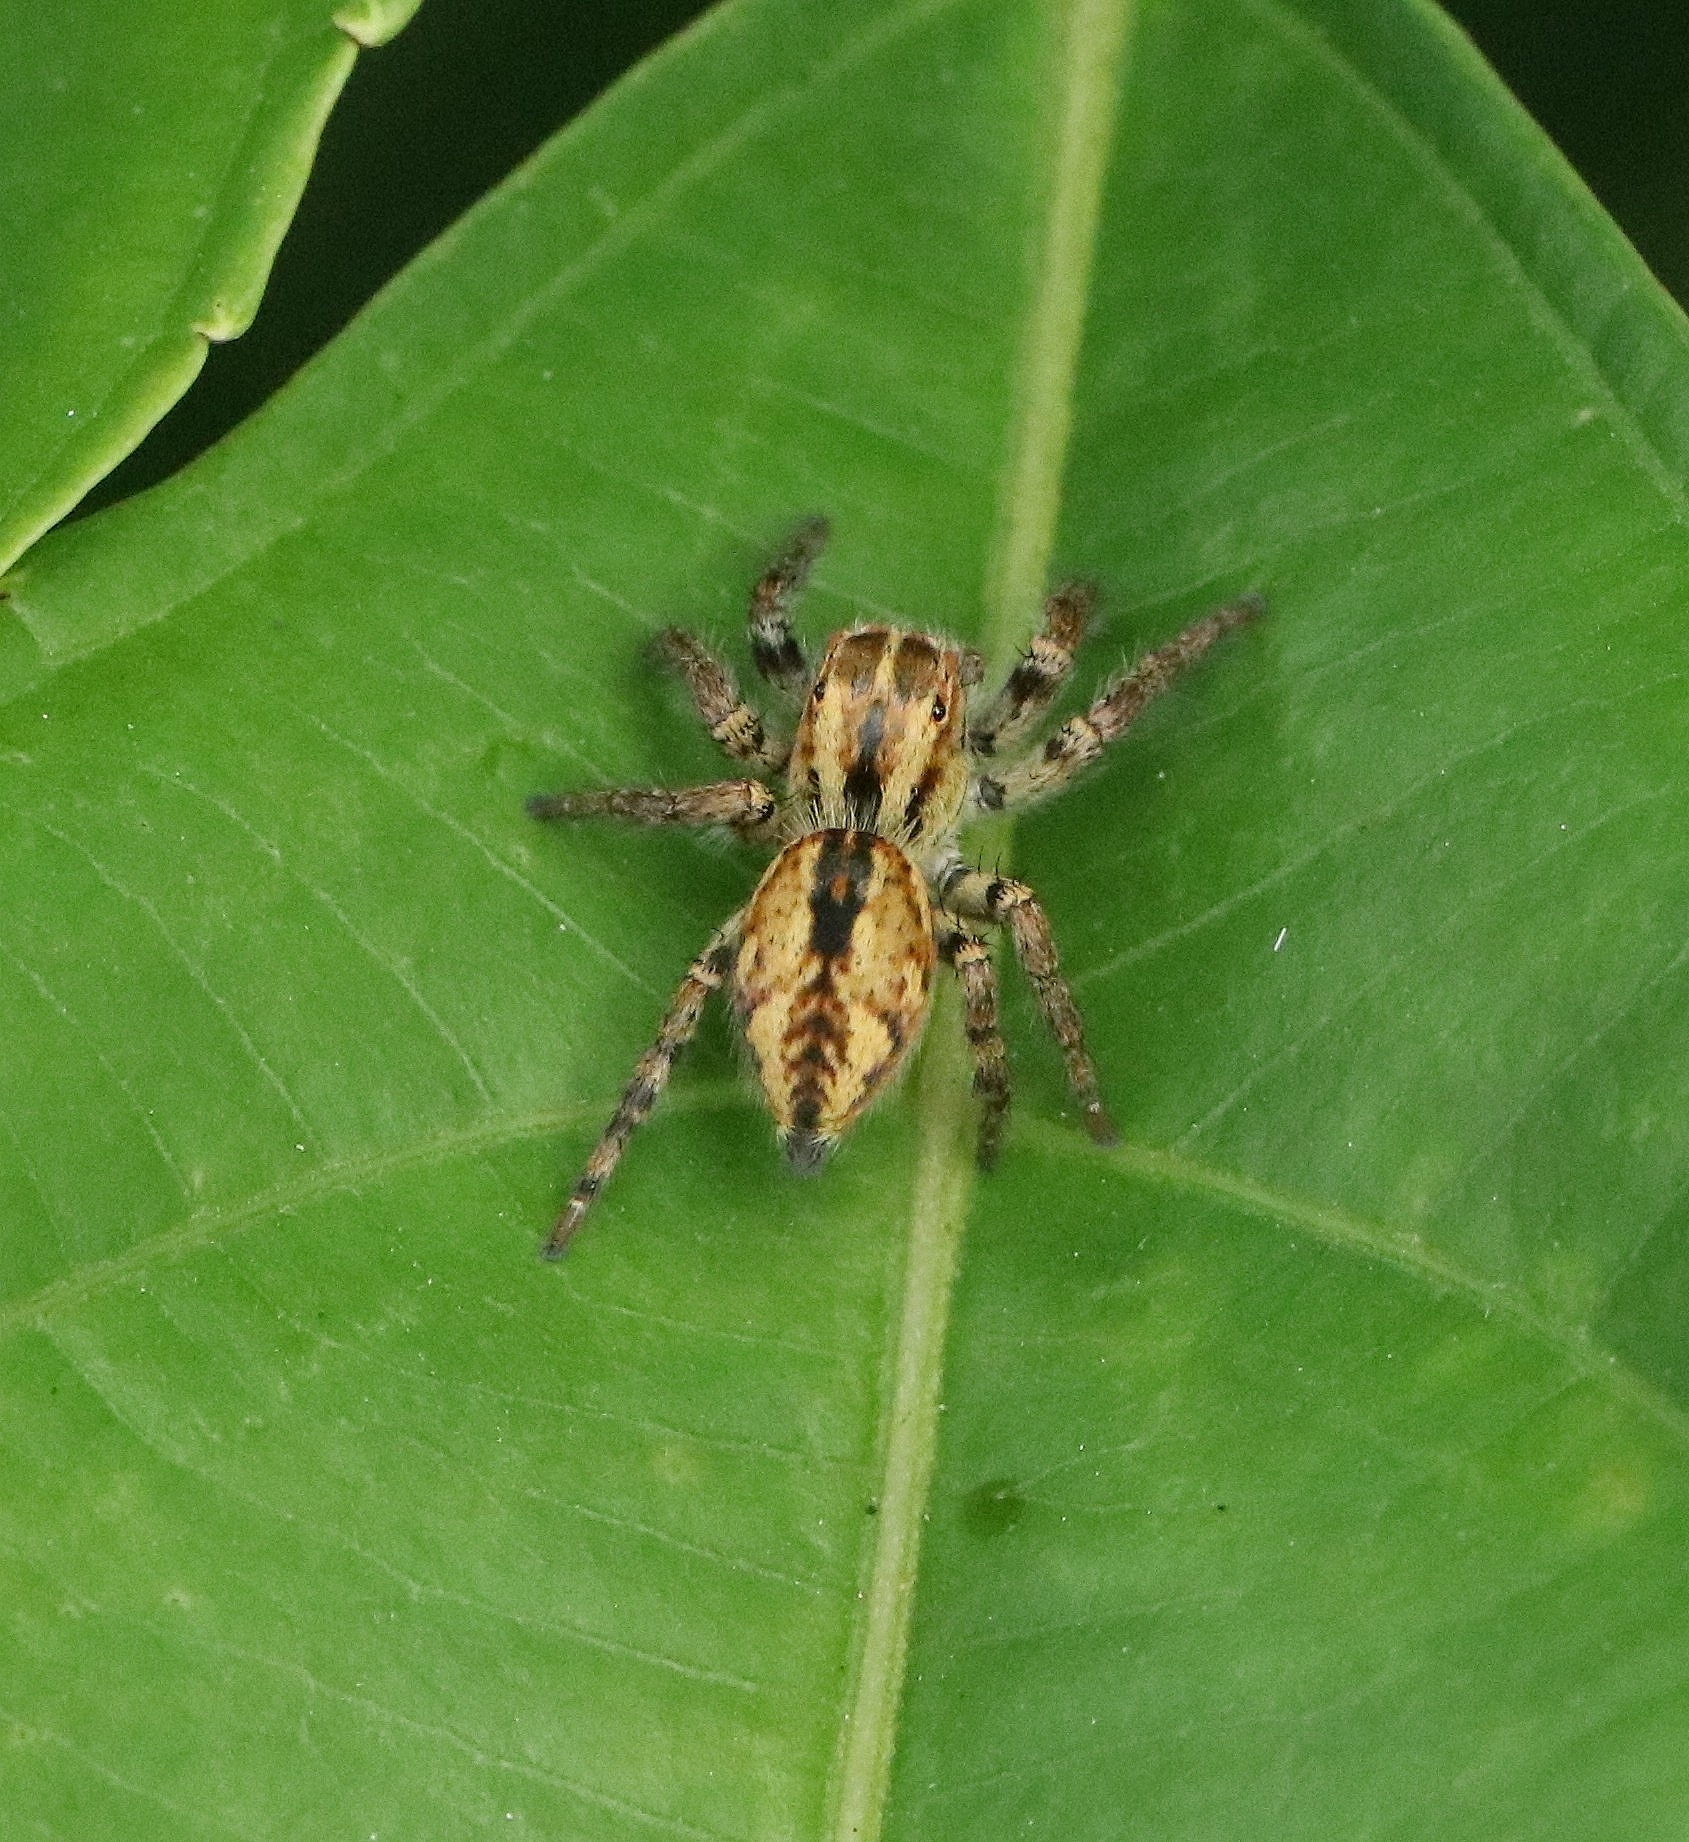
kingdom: Animalia
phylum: Arthropoda
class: Arachnida
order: Araneae
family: Salticidae
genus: Carrhotus
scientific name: Carrhotus viduus
